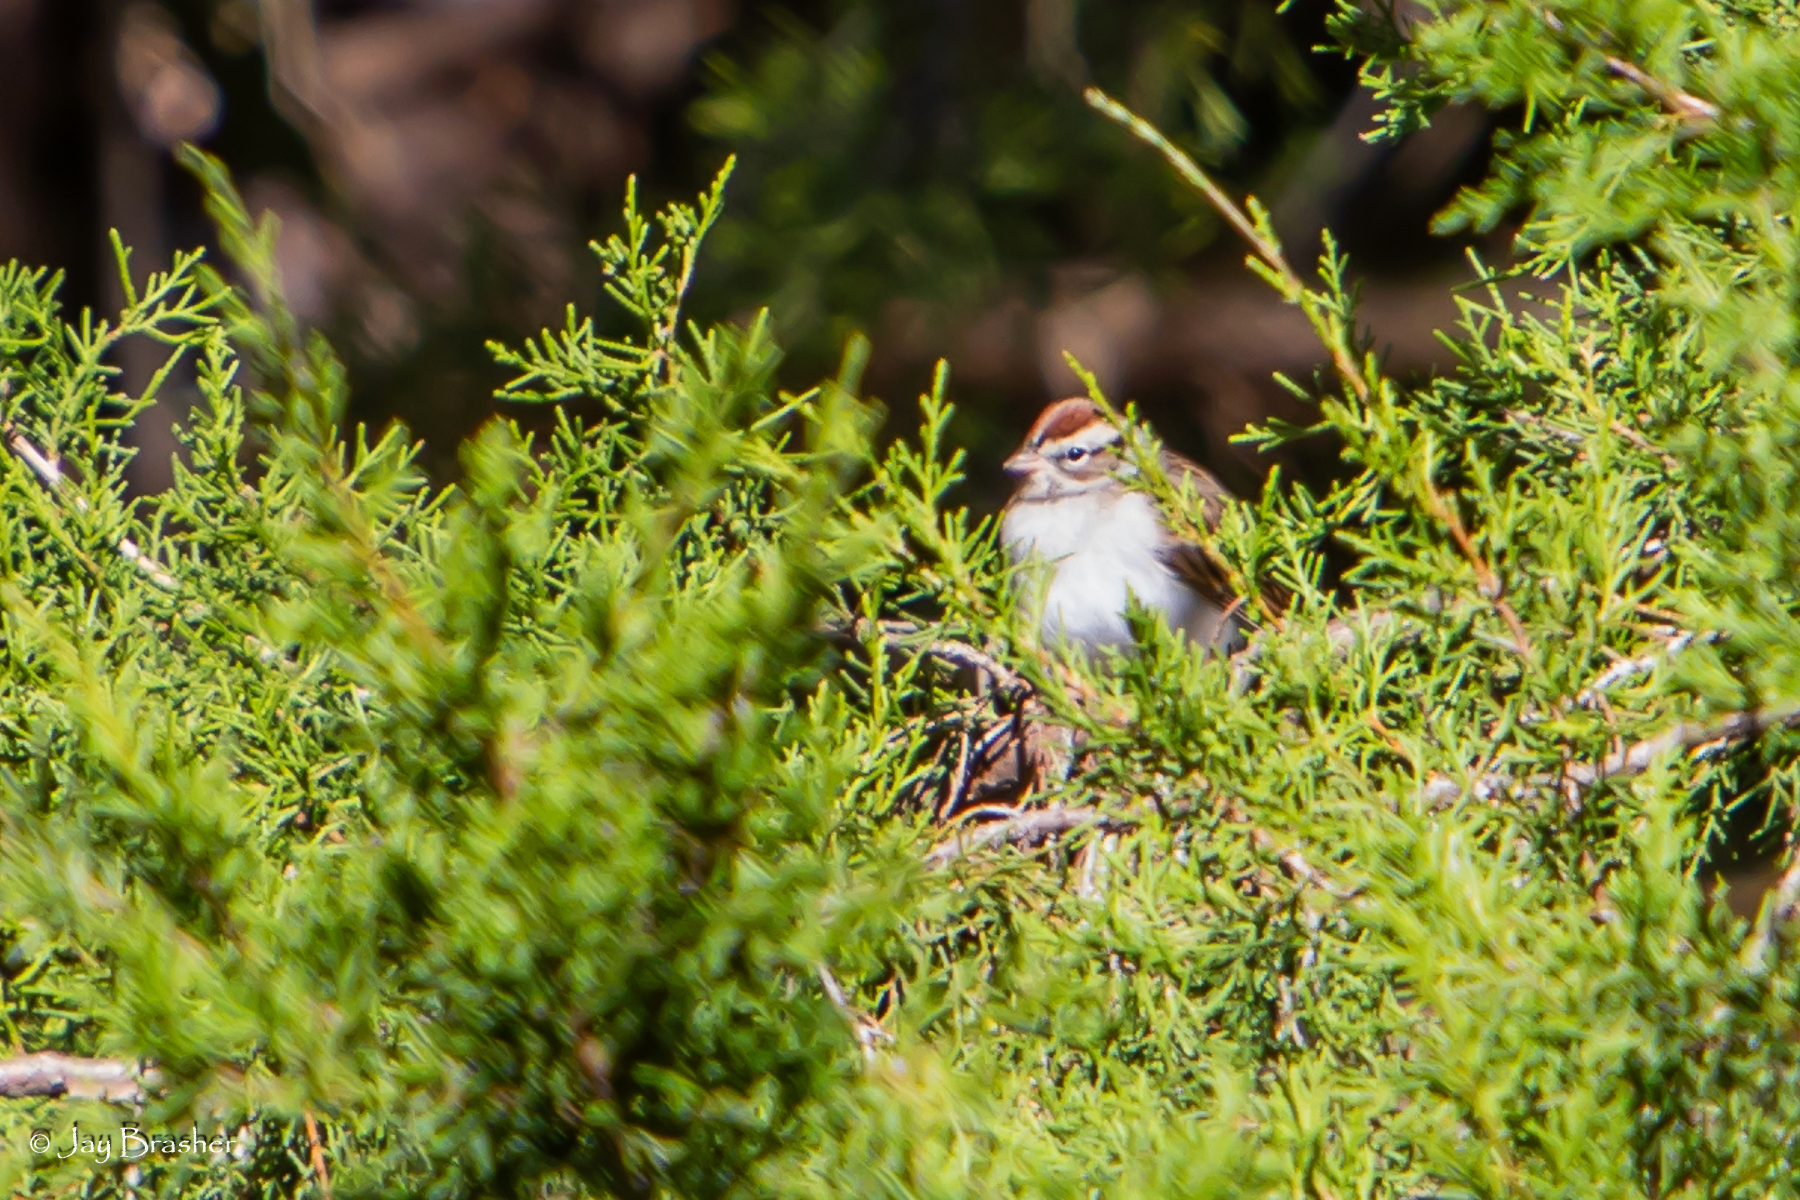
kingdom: Animalia
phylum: Chordata
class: Aves
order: Passeriformes
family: Passerellidae
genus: Spizella
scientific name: Spizella passerina
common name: Chipping sparrow
